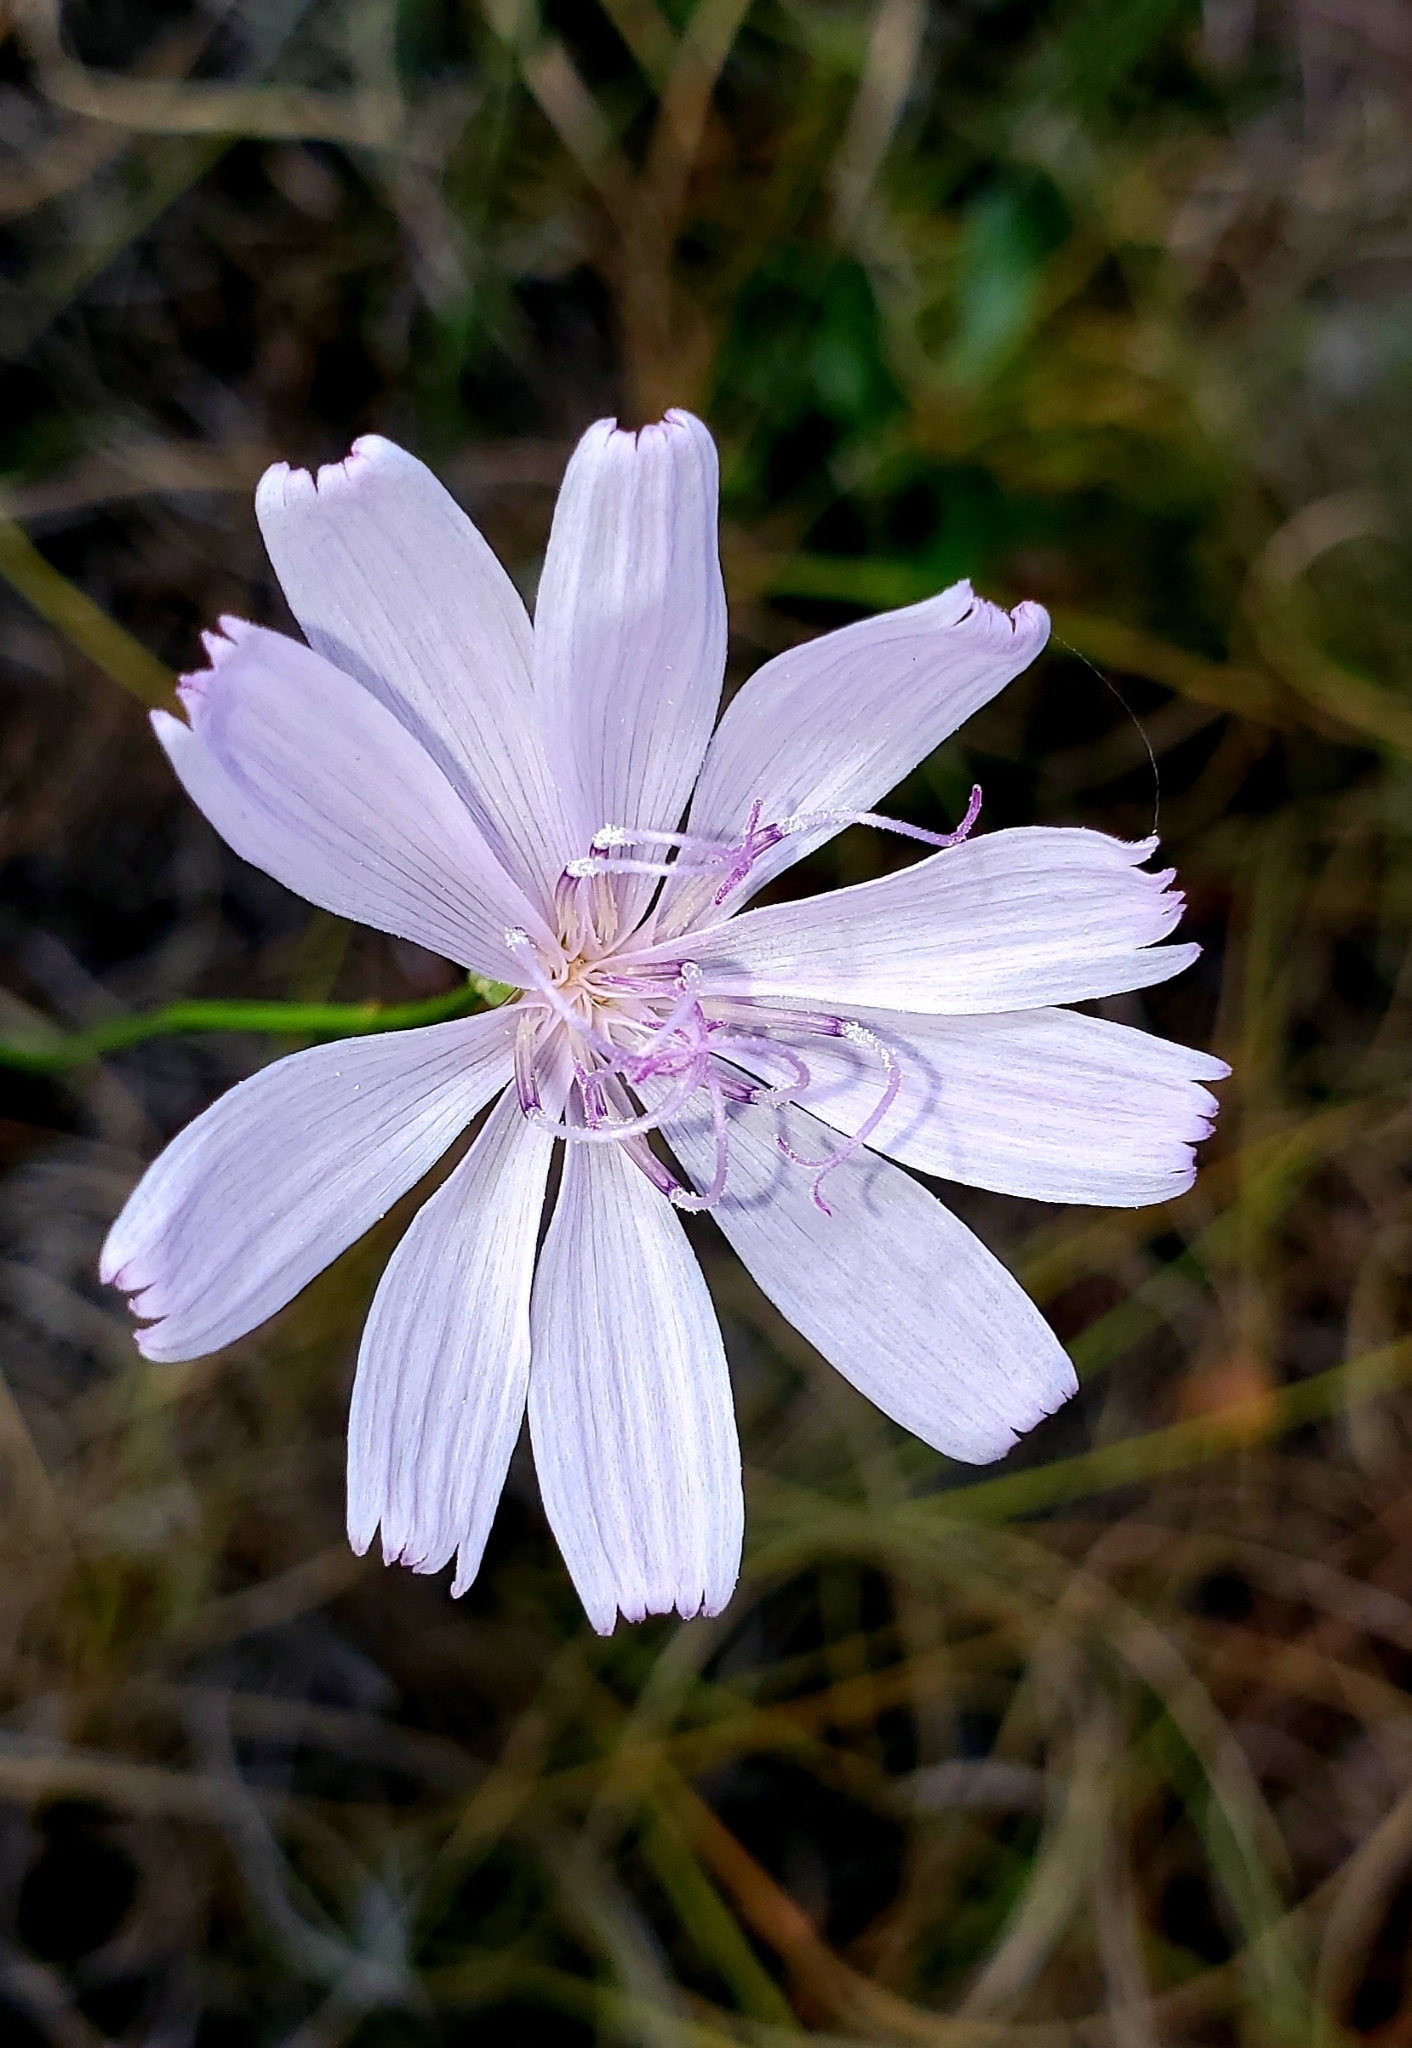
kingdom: Plantae
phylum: Tracheophyta
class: Magnoliopsida
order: Asterales
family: Asteraceae
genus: Lygodesmia
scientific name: Lygodesmia aphylla
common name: Rose-rush
